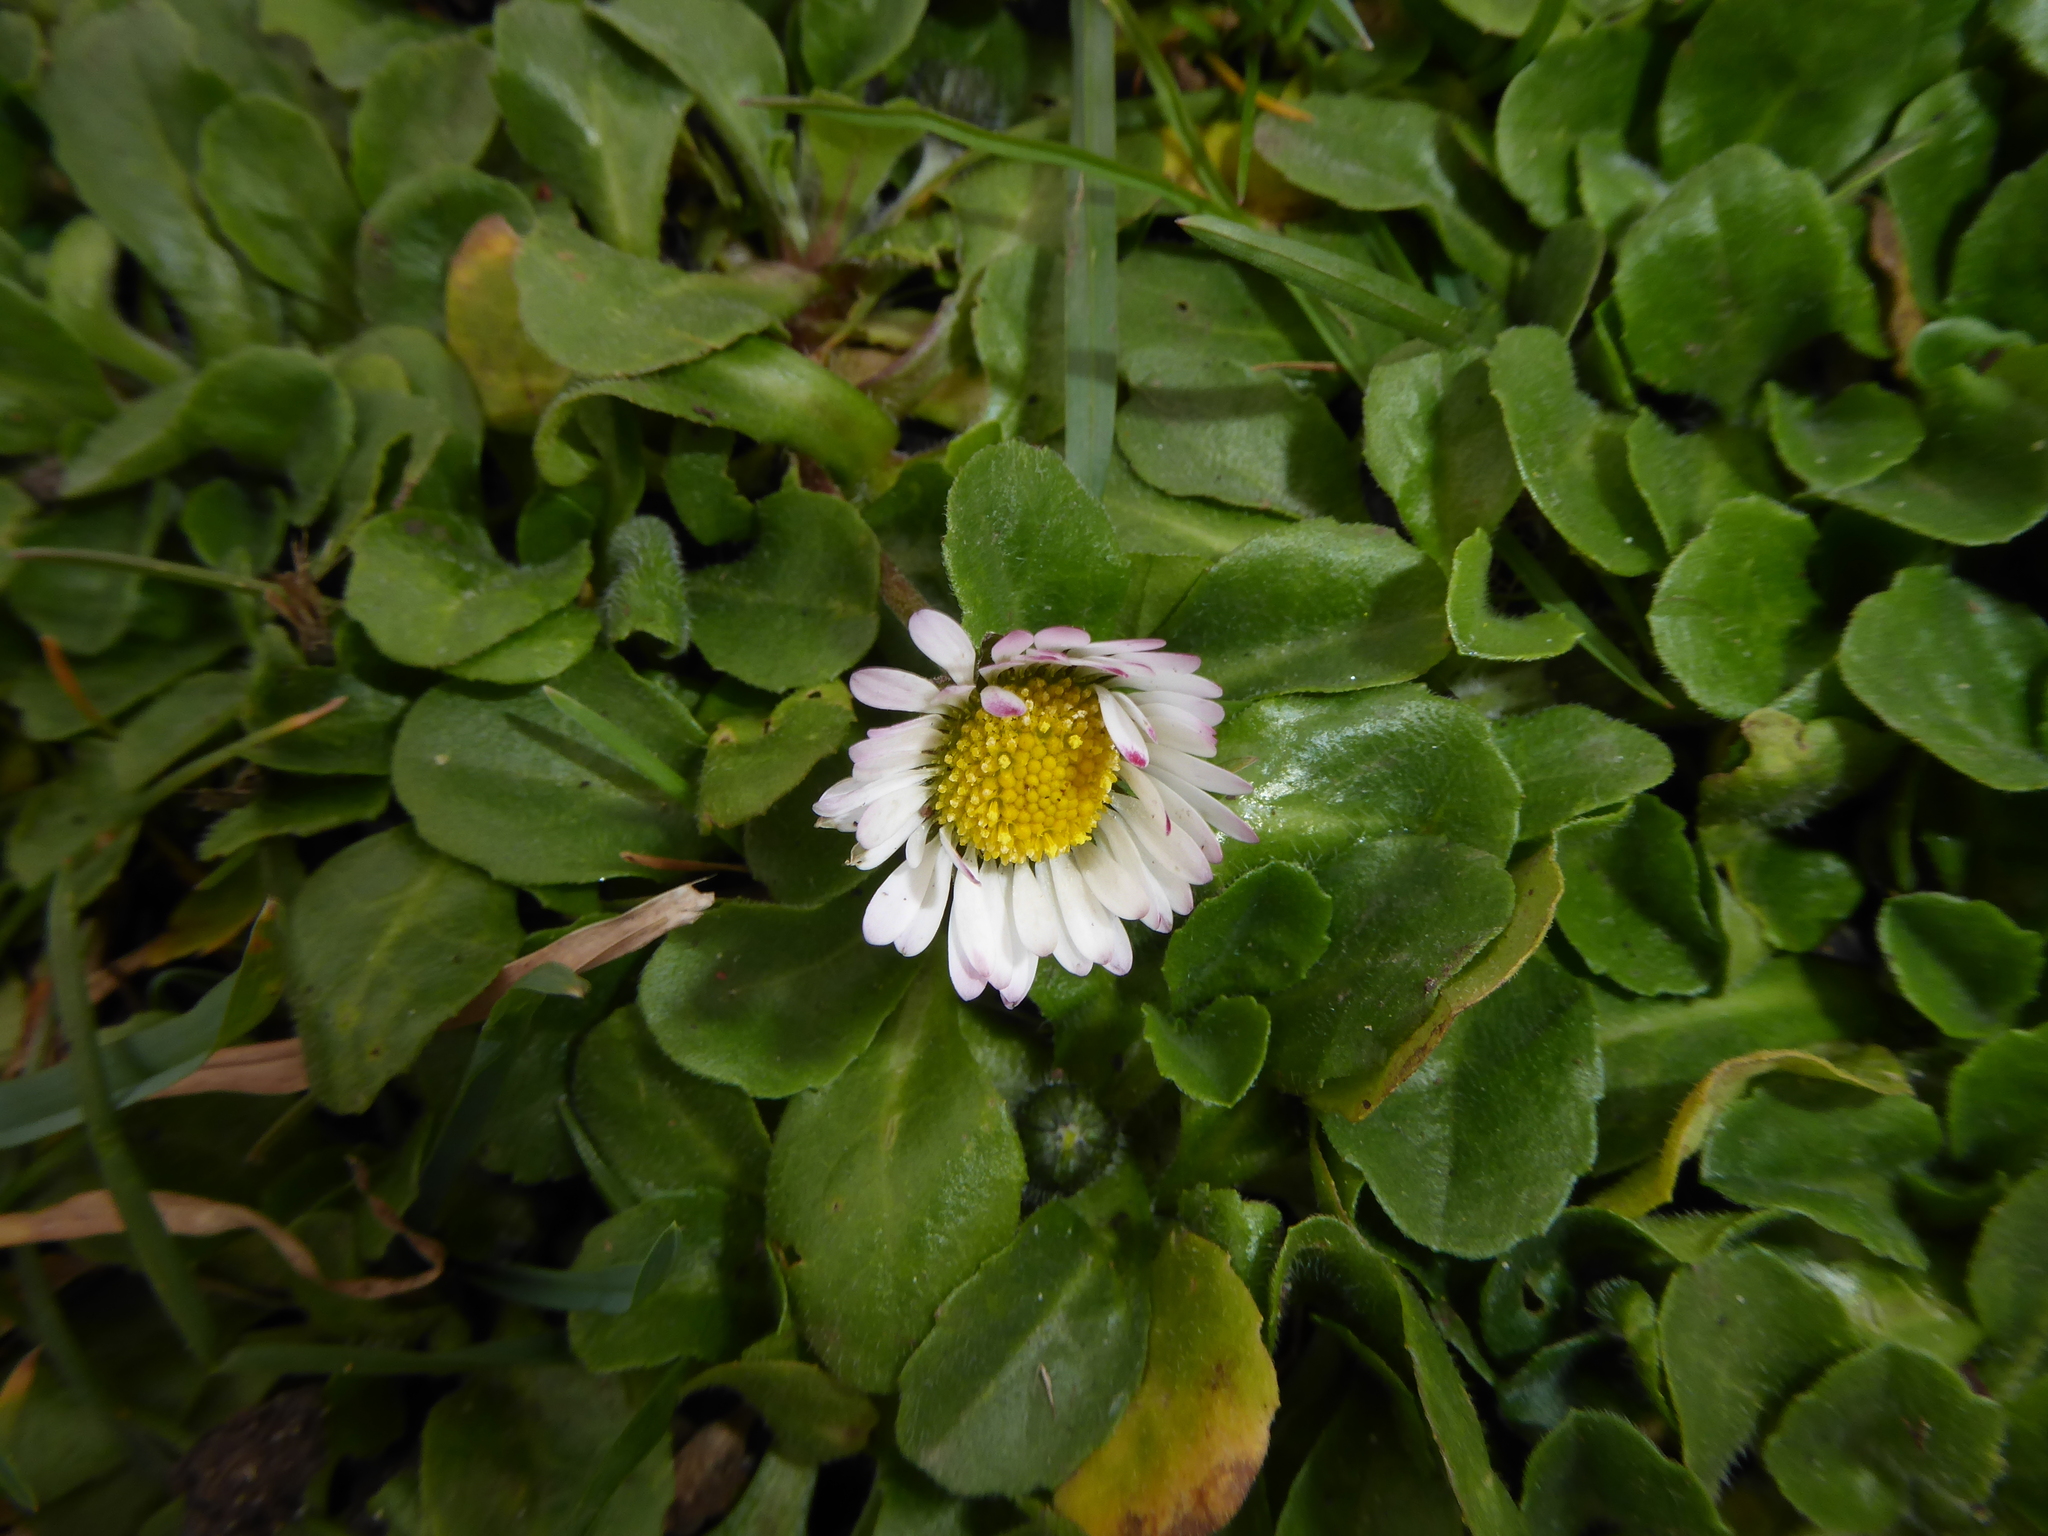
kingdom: Plantae
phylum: Tracheophyta
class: Magnoliopsida
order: Asterales
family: Asteraceae
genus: Bellis
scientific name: Bellis perennis
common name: Lawndaisy
